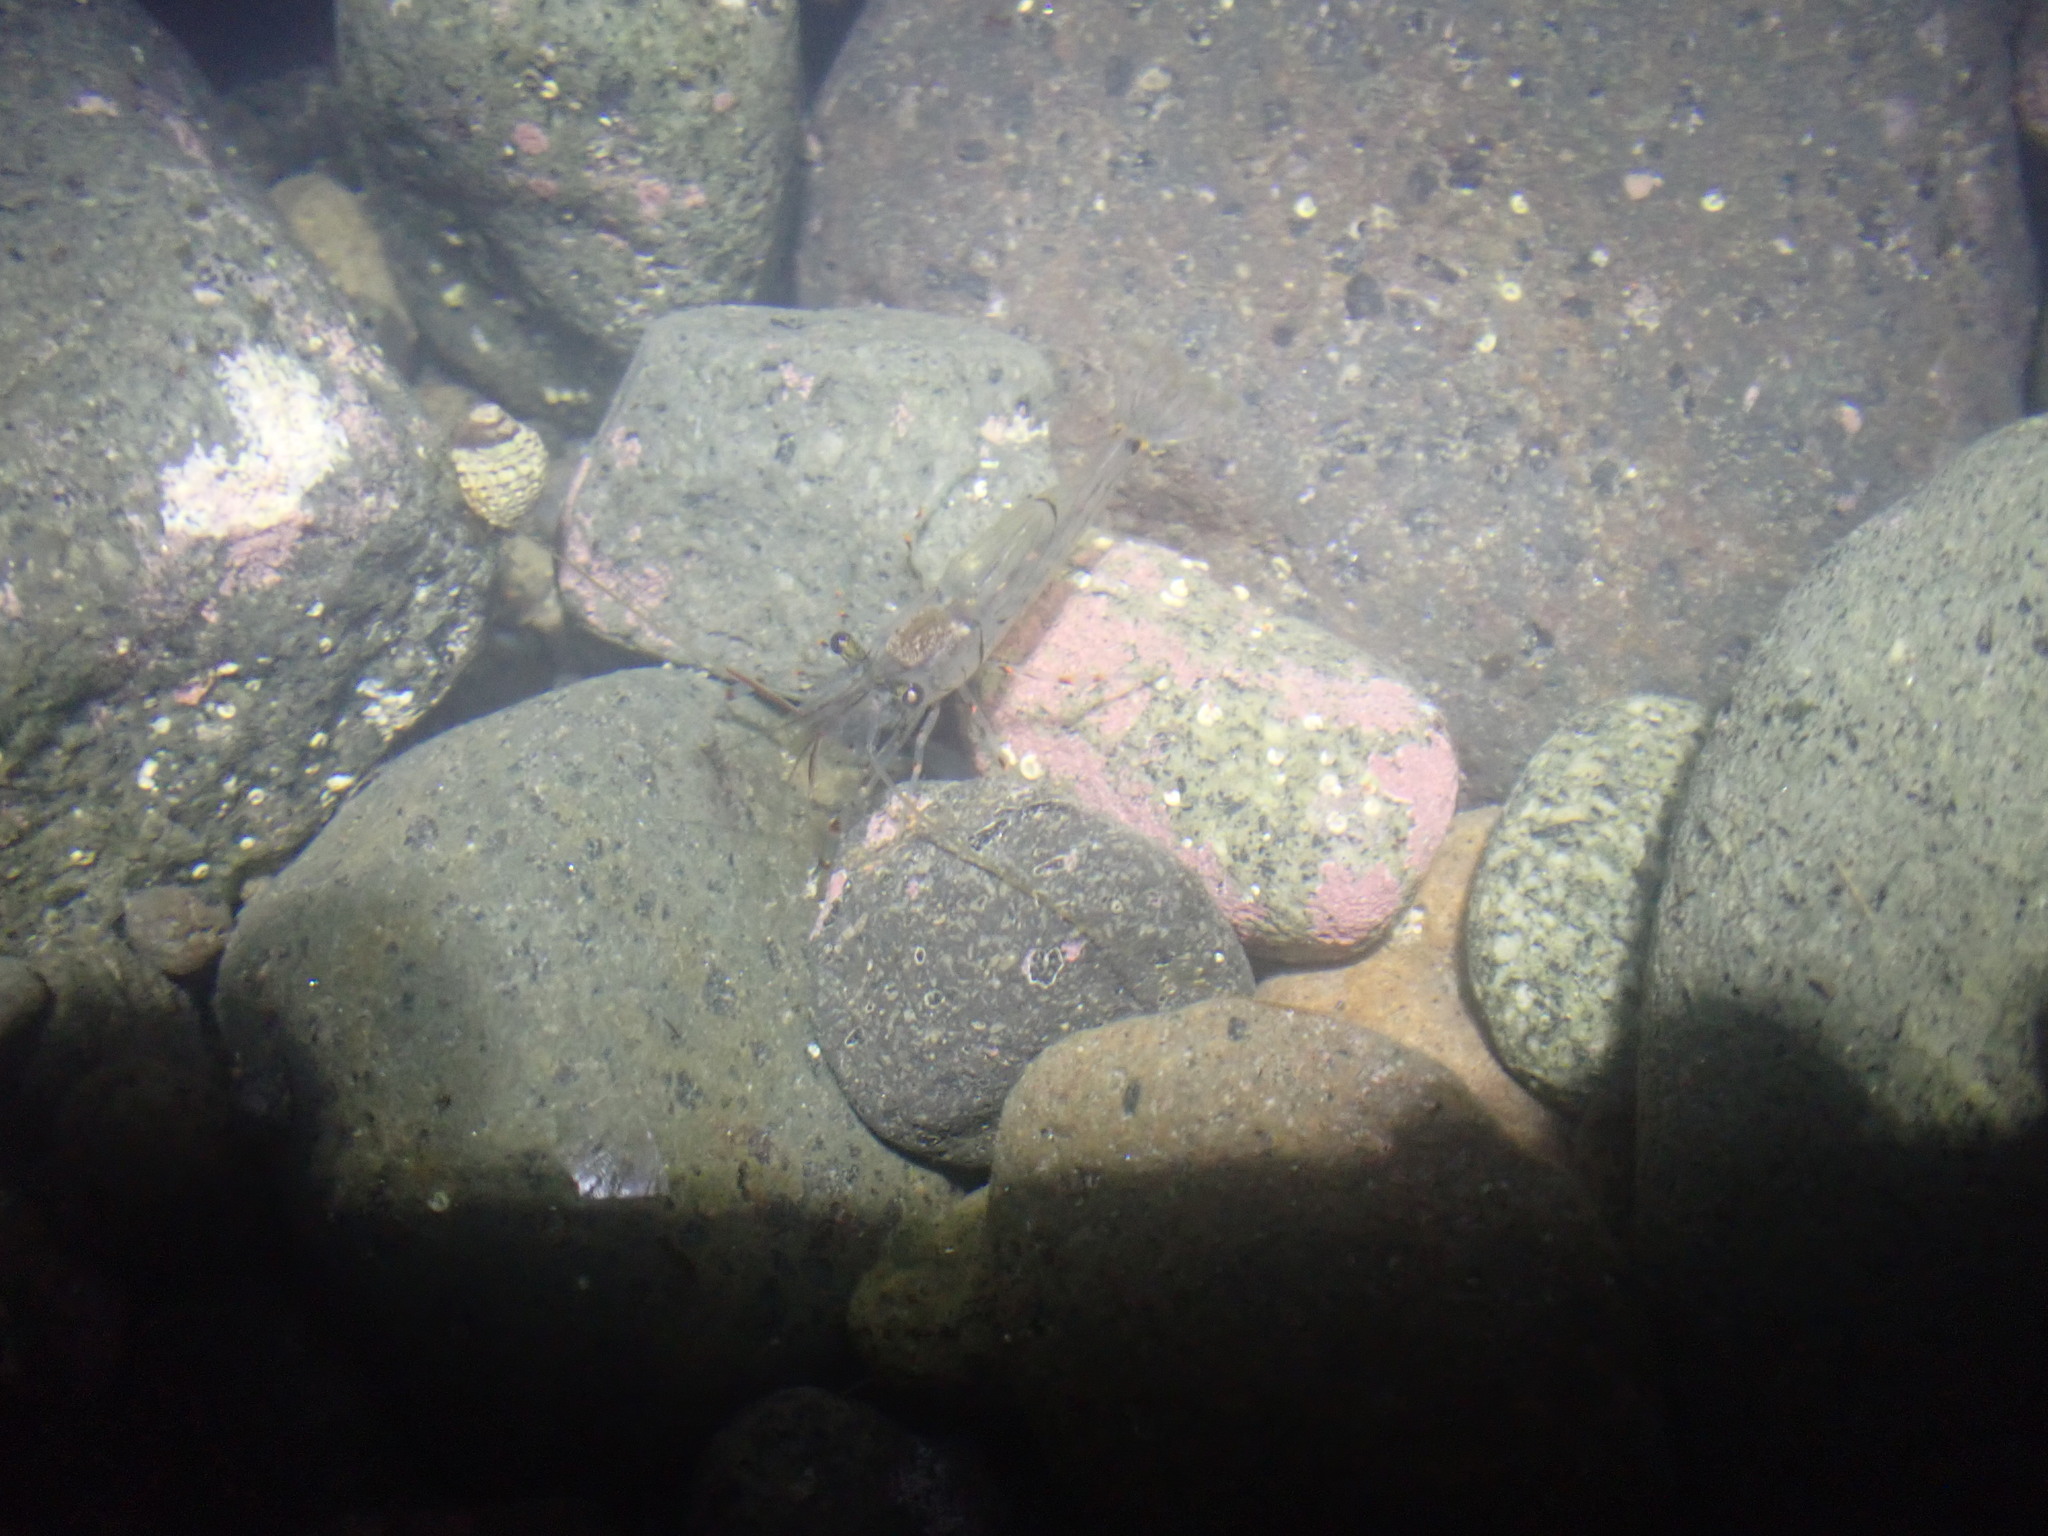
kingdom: Animalia
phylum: Arthropoda
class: Malacostraca
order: Decapoda
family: Palaemonidae
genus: Palaemon
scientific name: Palaemon affinis
